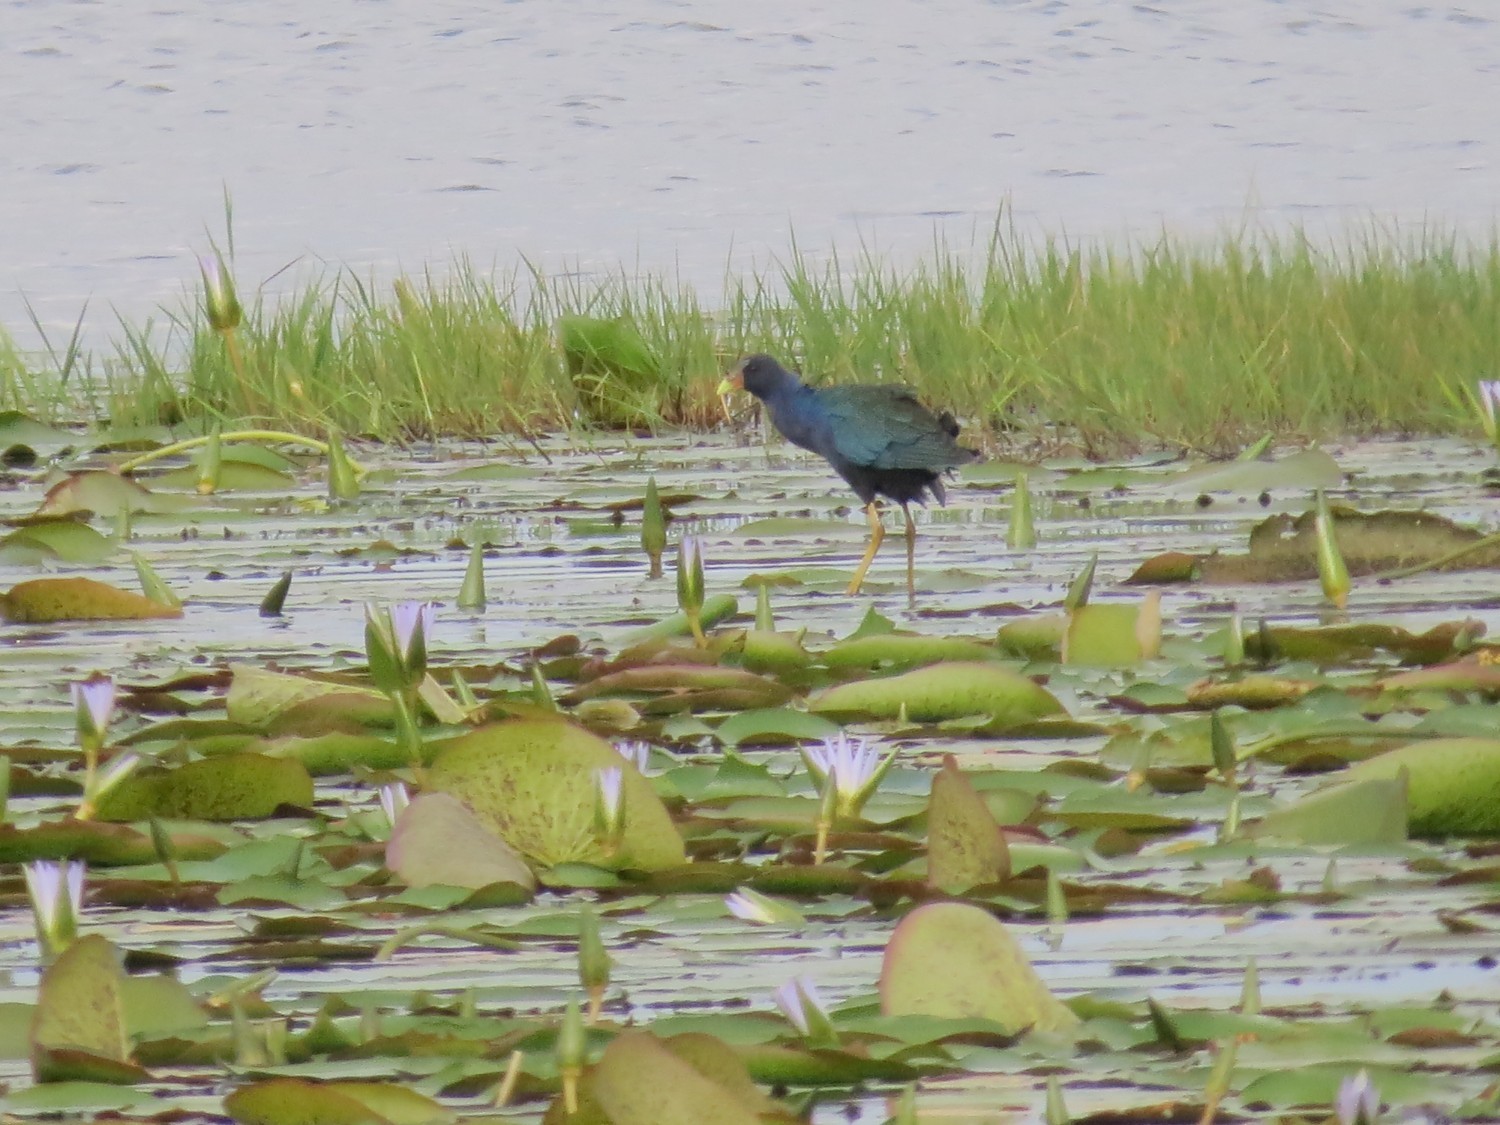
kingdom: Animalia
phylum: Chordata
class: Aves
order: Gruiformes
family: Rallidae
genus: Porphyrio
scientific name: Porphyrio martinica
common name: Purple gallinule
